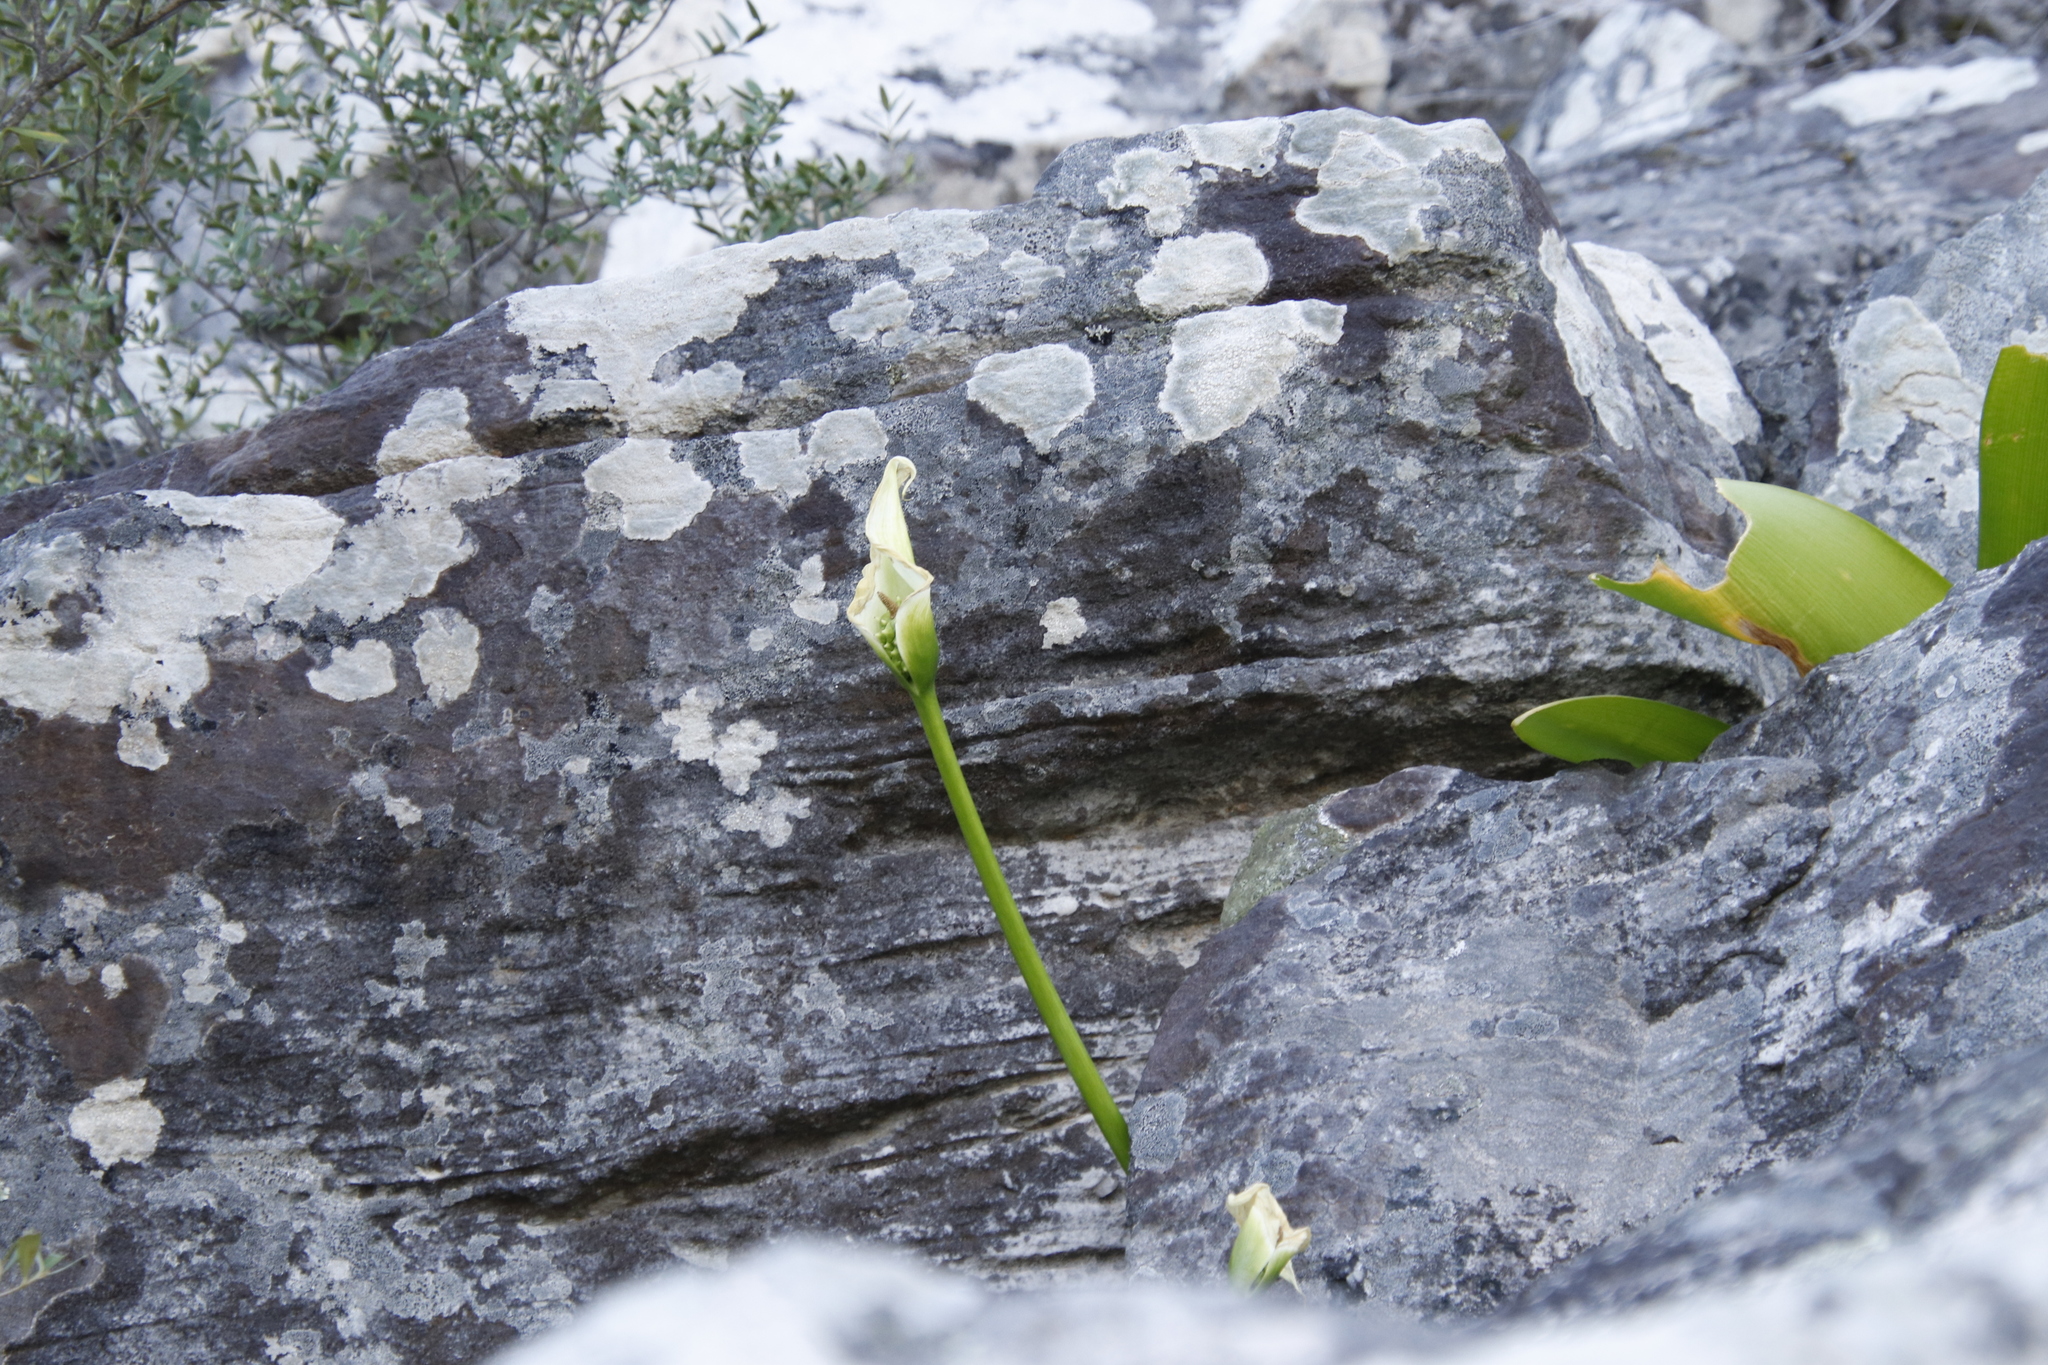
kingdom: Plantae
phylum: Tracheophyta
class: Liliopsida
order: Alismatales
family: Araceae
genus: Zantedeschia
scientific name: Zantedeschia odorata
